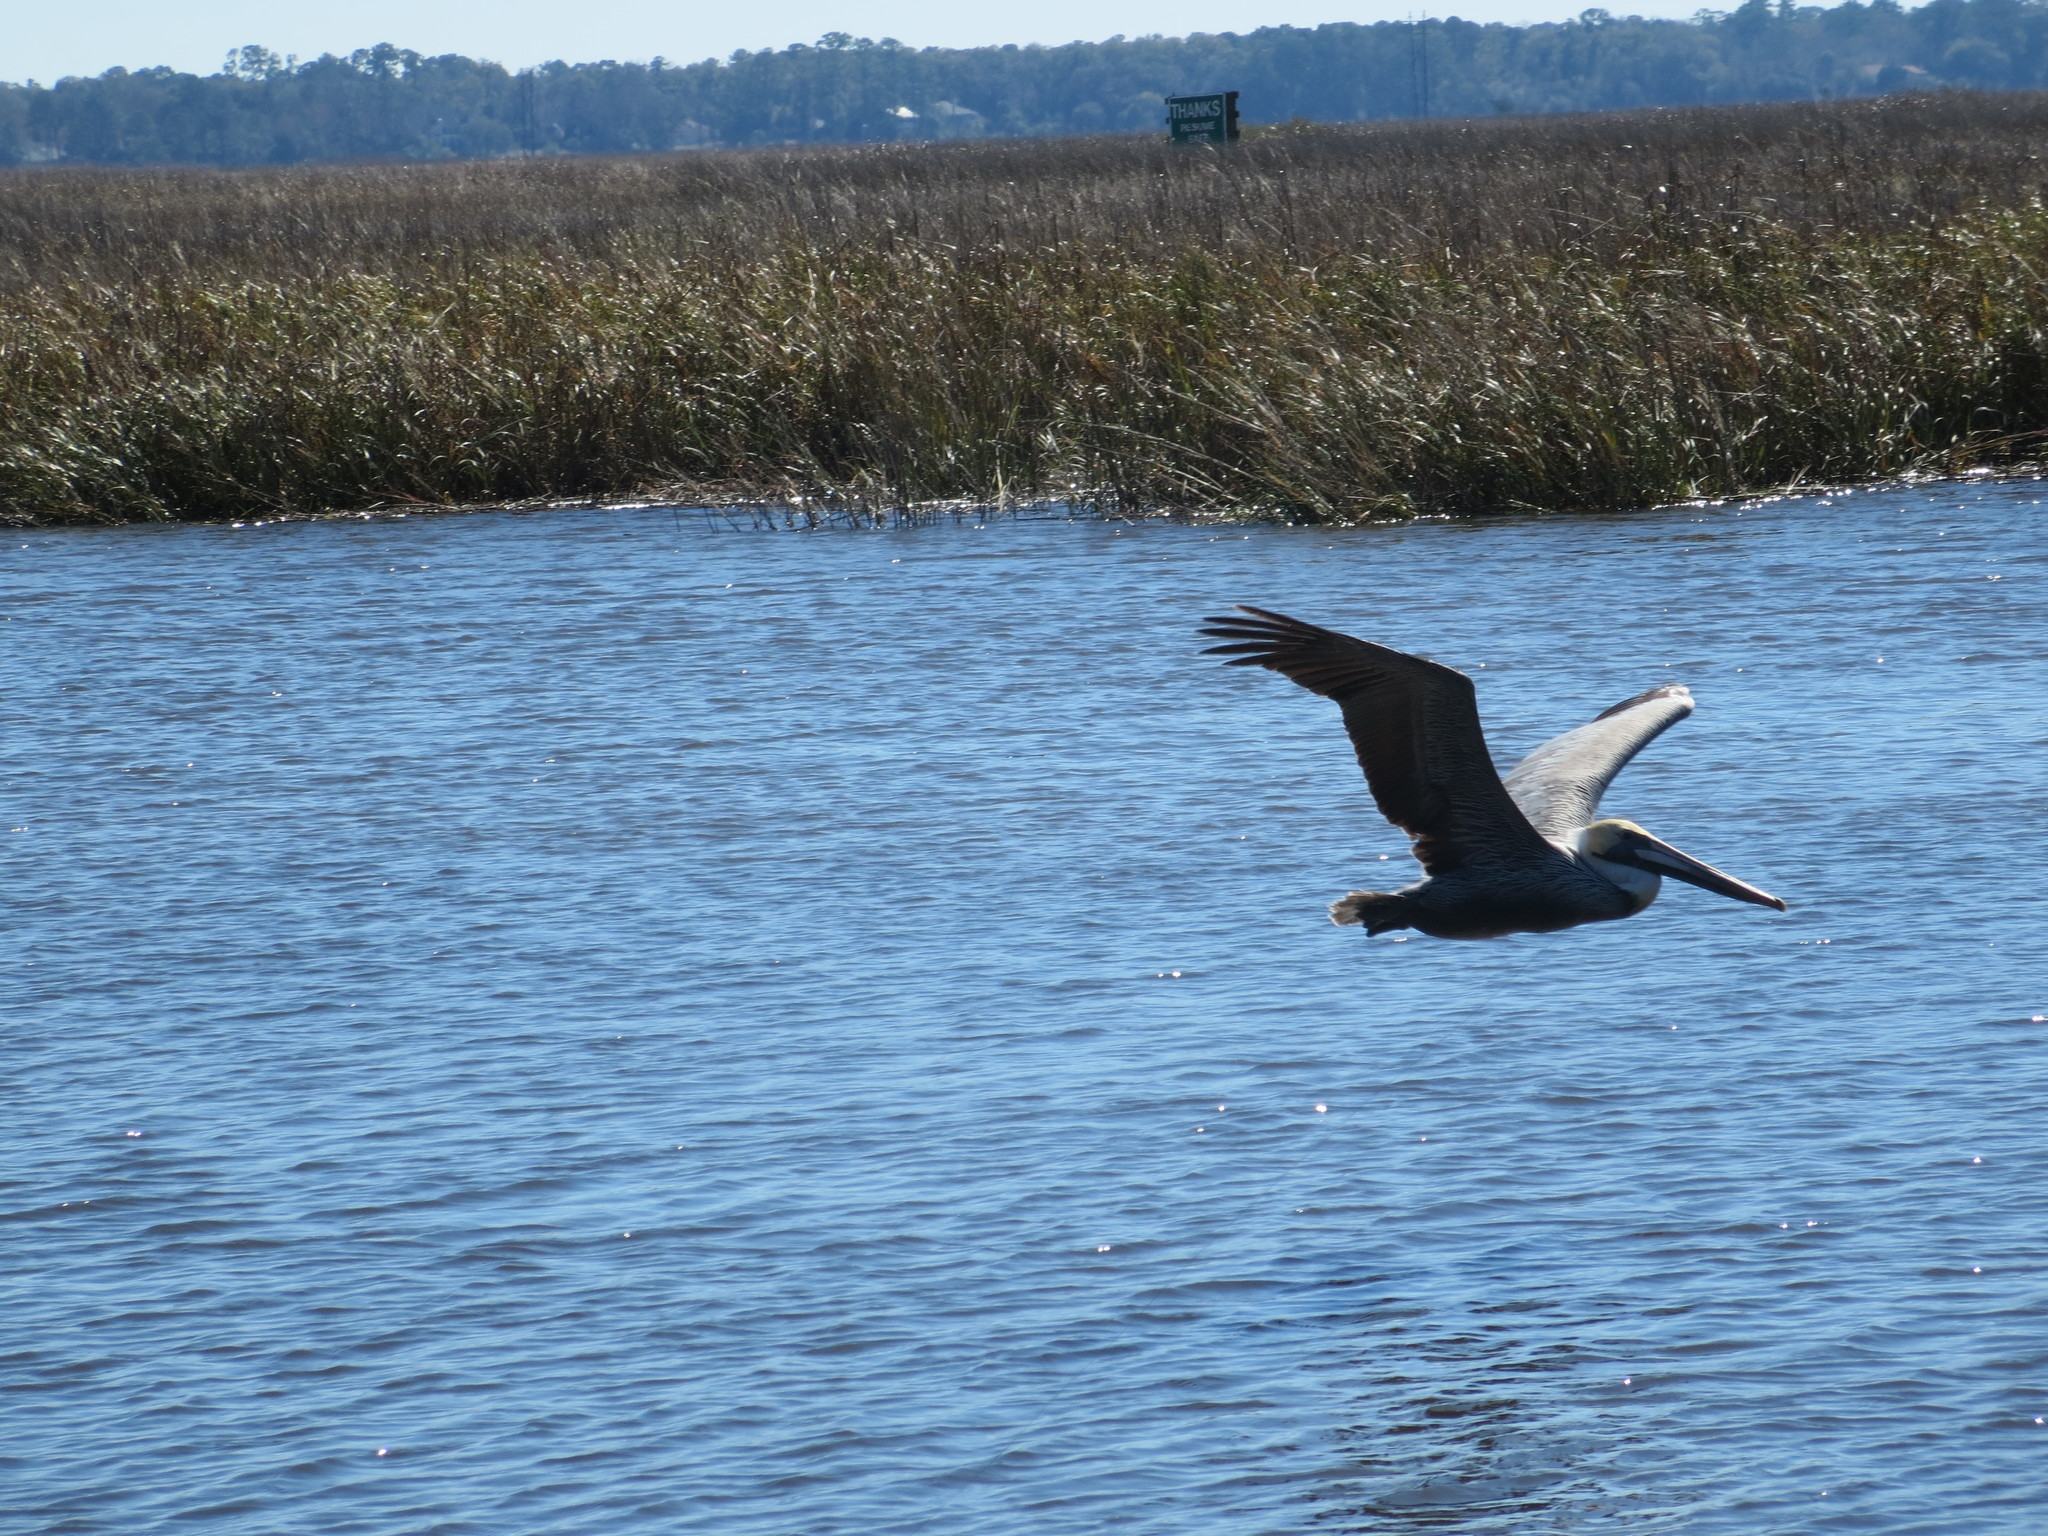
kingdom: Animalia
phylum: Chordata
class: Aves
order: Pelecaniformes
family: Pelecanidae
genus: Pelecanus
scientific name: Pelecanus occidentalis
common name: Brown pelican
